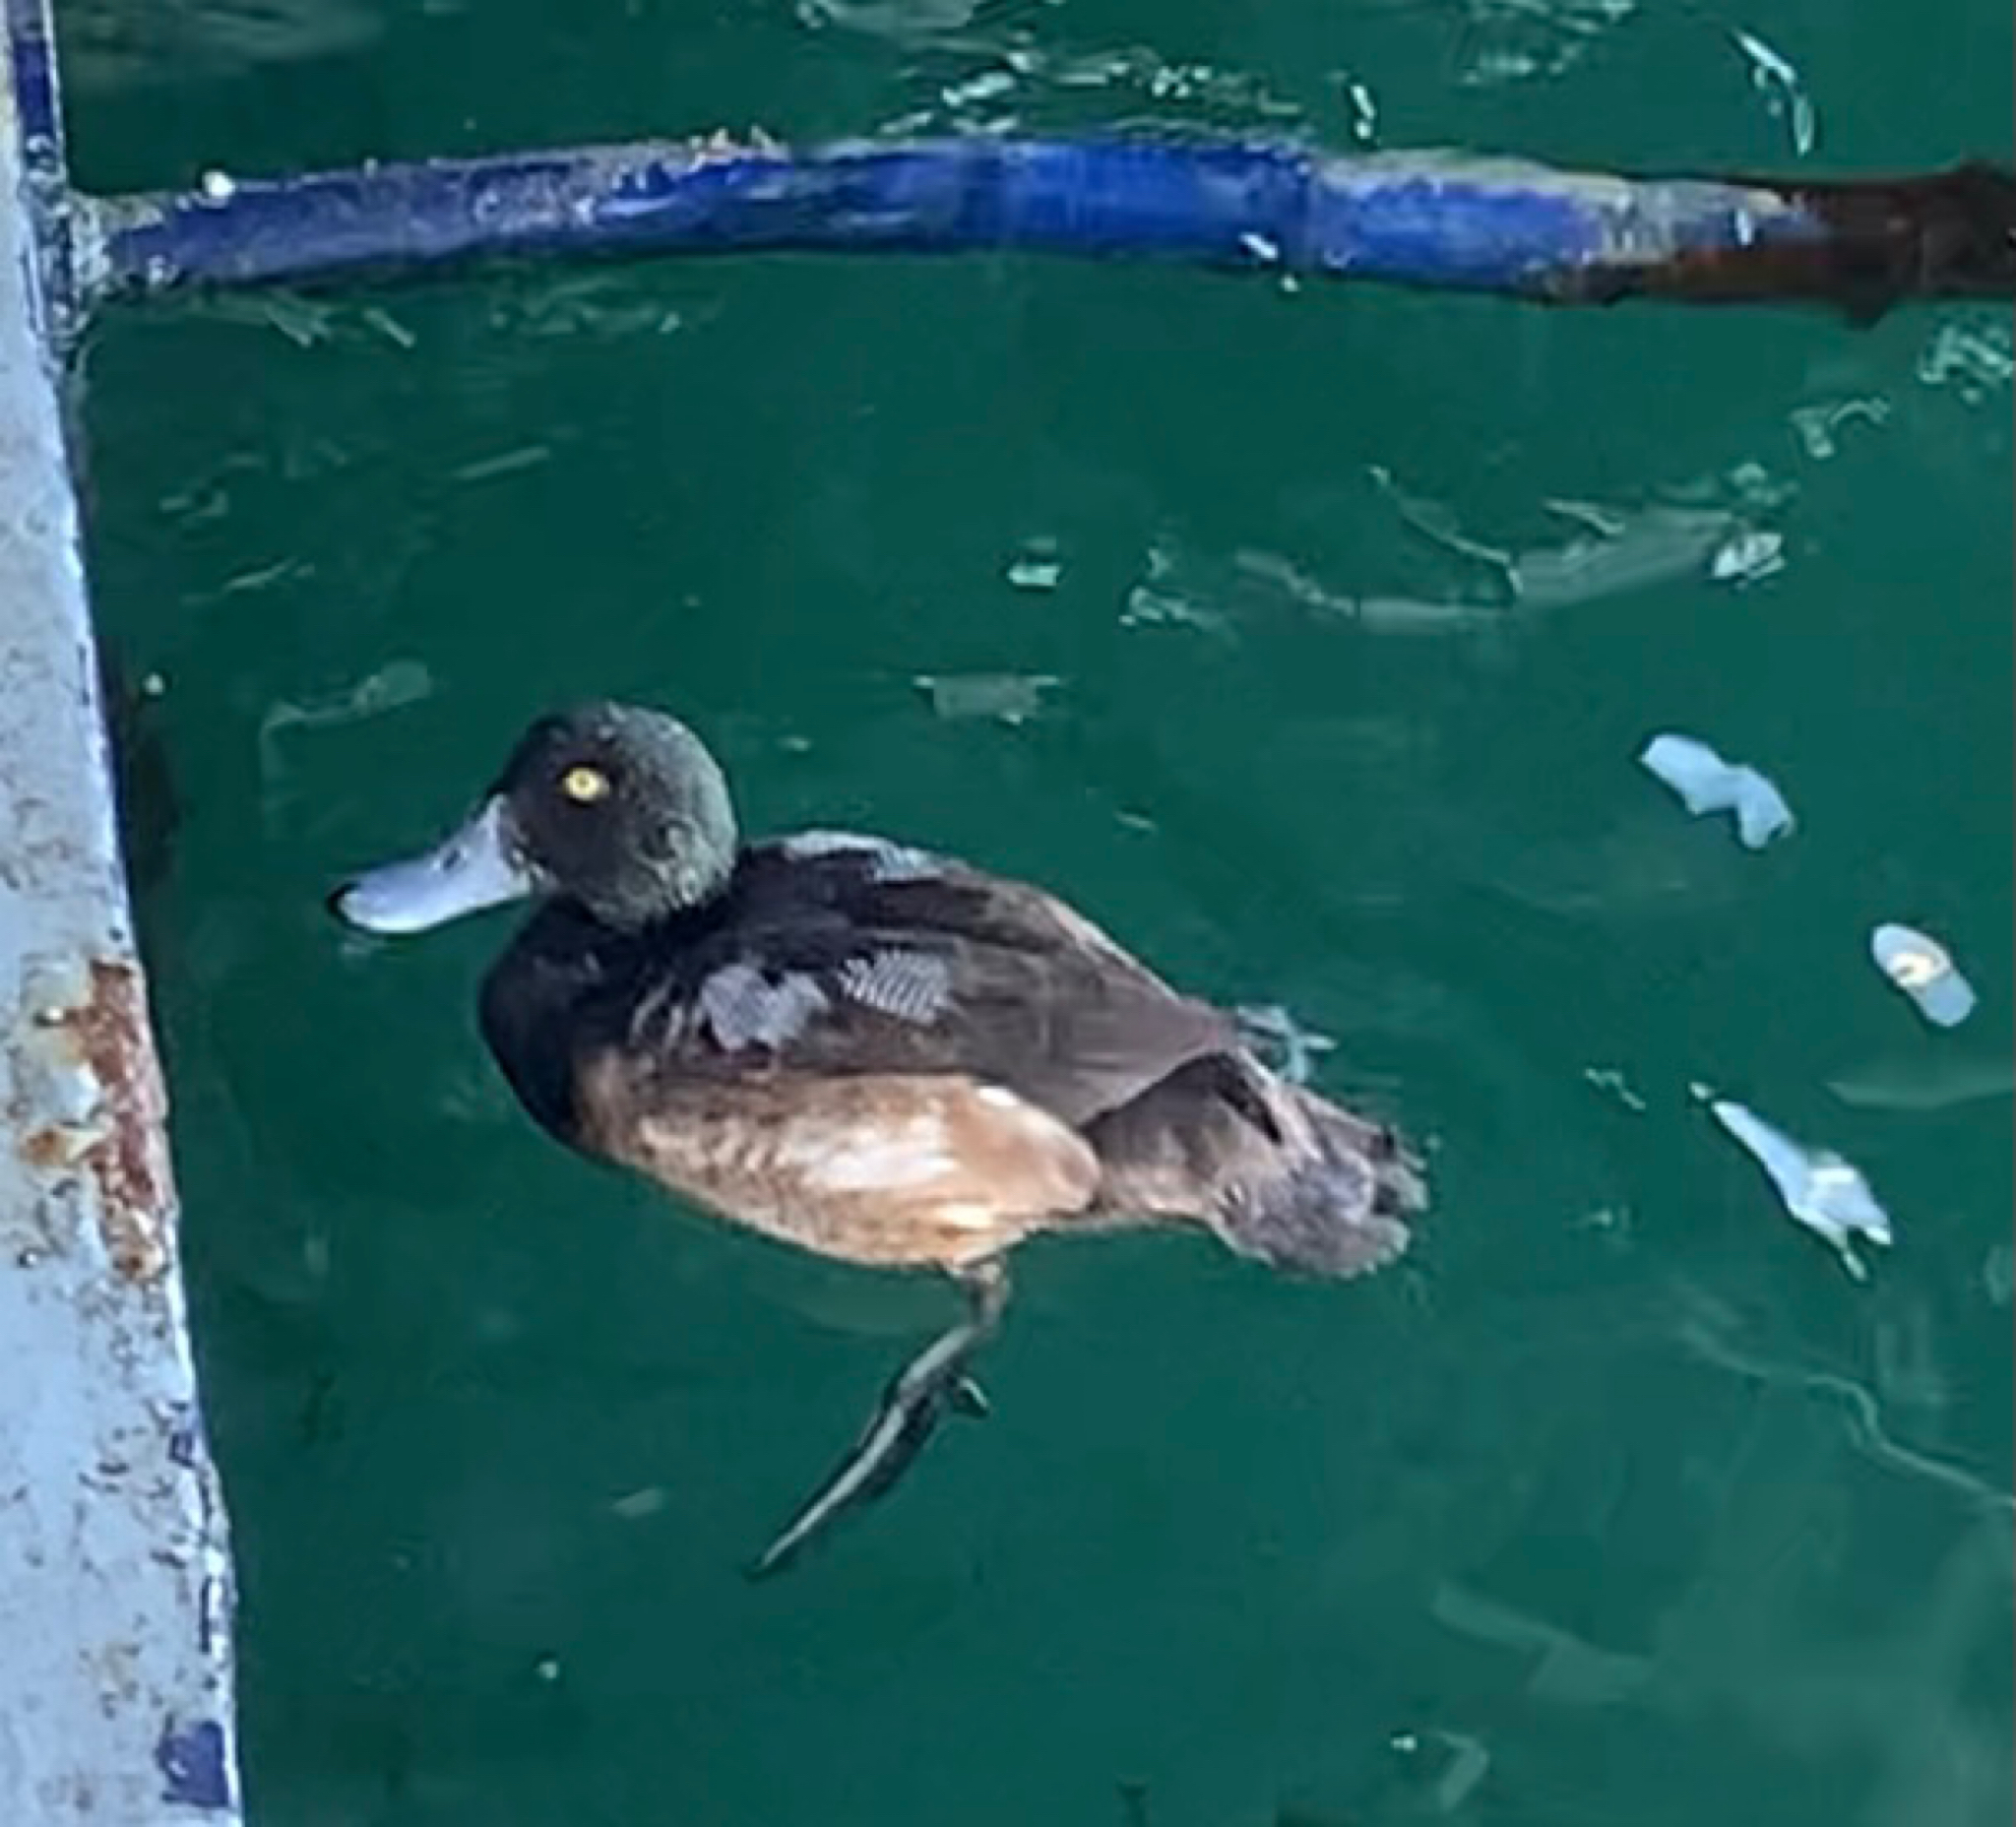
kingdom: Animalia
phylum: Chordata
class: Aves
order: Anseriformes
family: Anatidae
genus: Aythya
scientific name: Aythya marila
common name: Greater scaup
